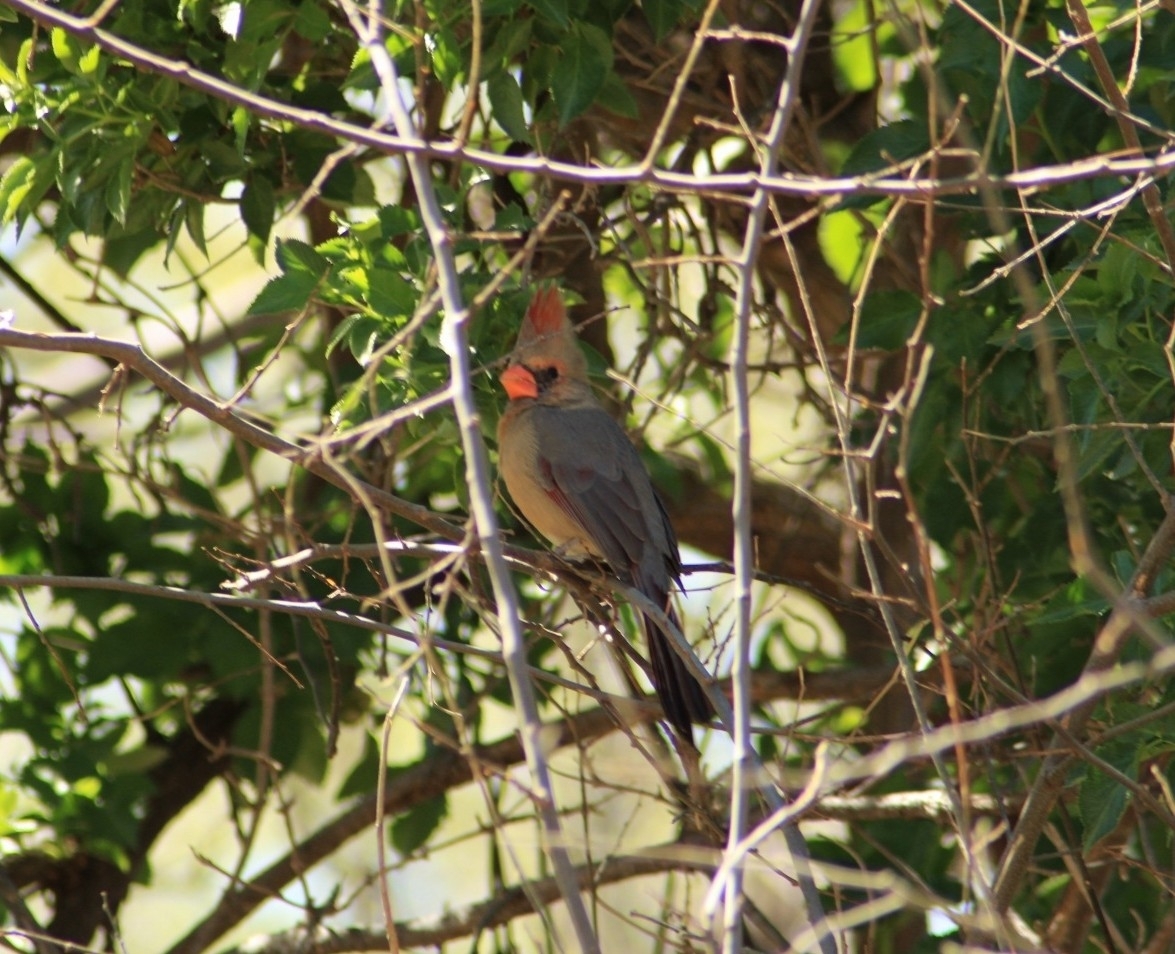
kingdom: Animalia
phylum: Chordata
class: Aves
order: Passeriformes
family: Cardinalidae
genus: Cardinalis
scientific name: Cardinalis cardinalis
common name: Northern cardinal
